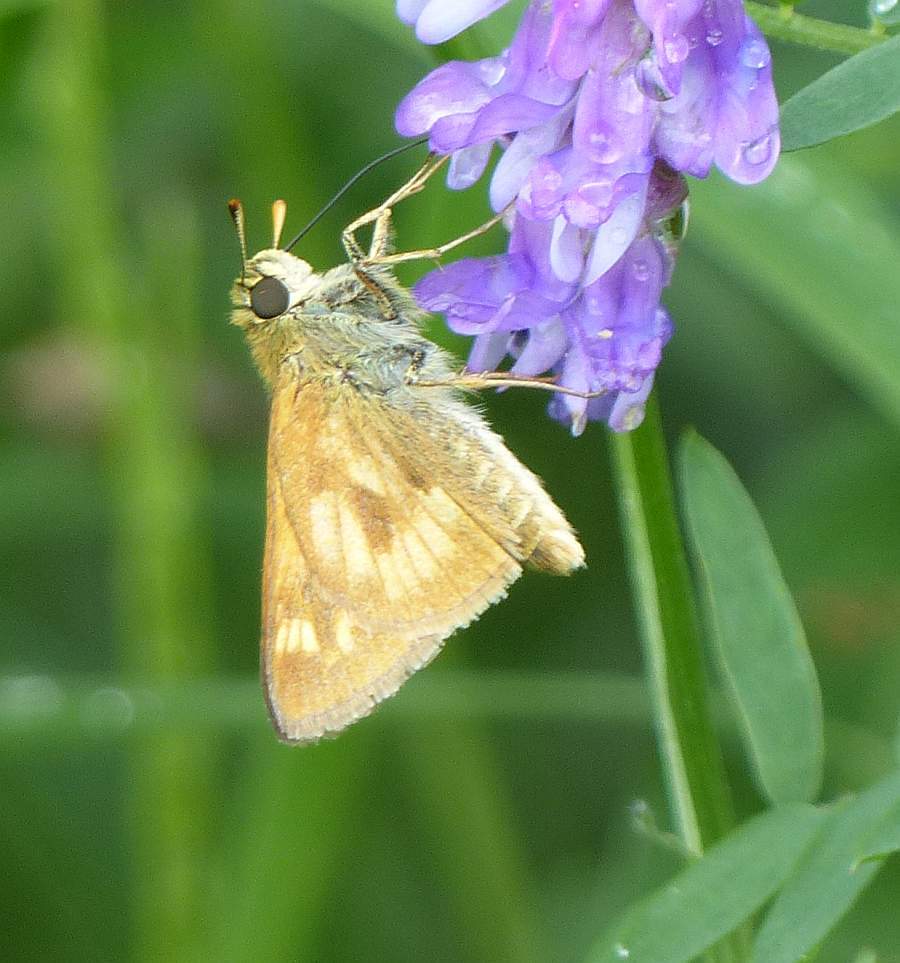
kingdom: Animalia
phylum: Arthropoda
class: Insecta
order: Lepidoptera
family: Hesperiidae
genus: Polites
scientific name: Polites mystic
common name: Long dash
